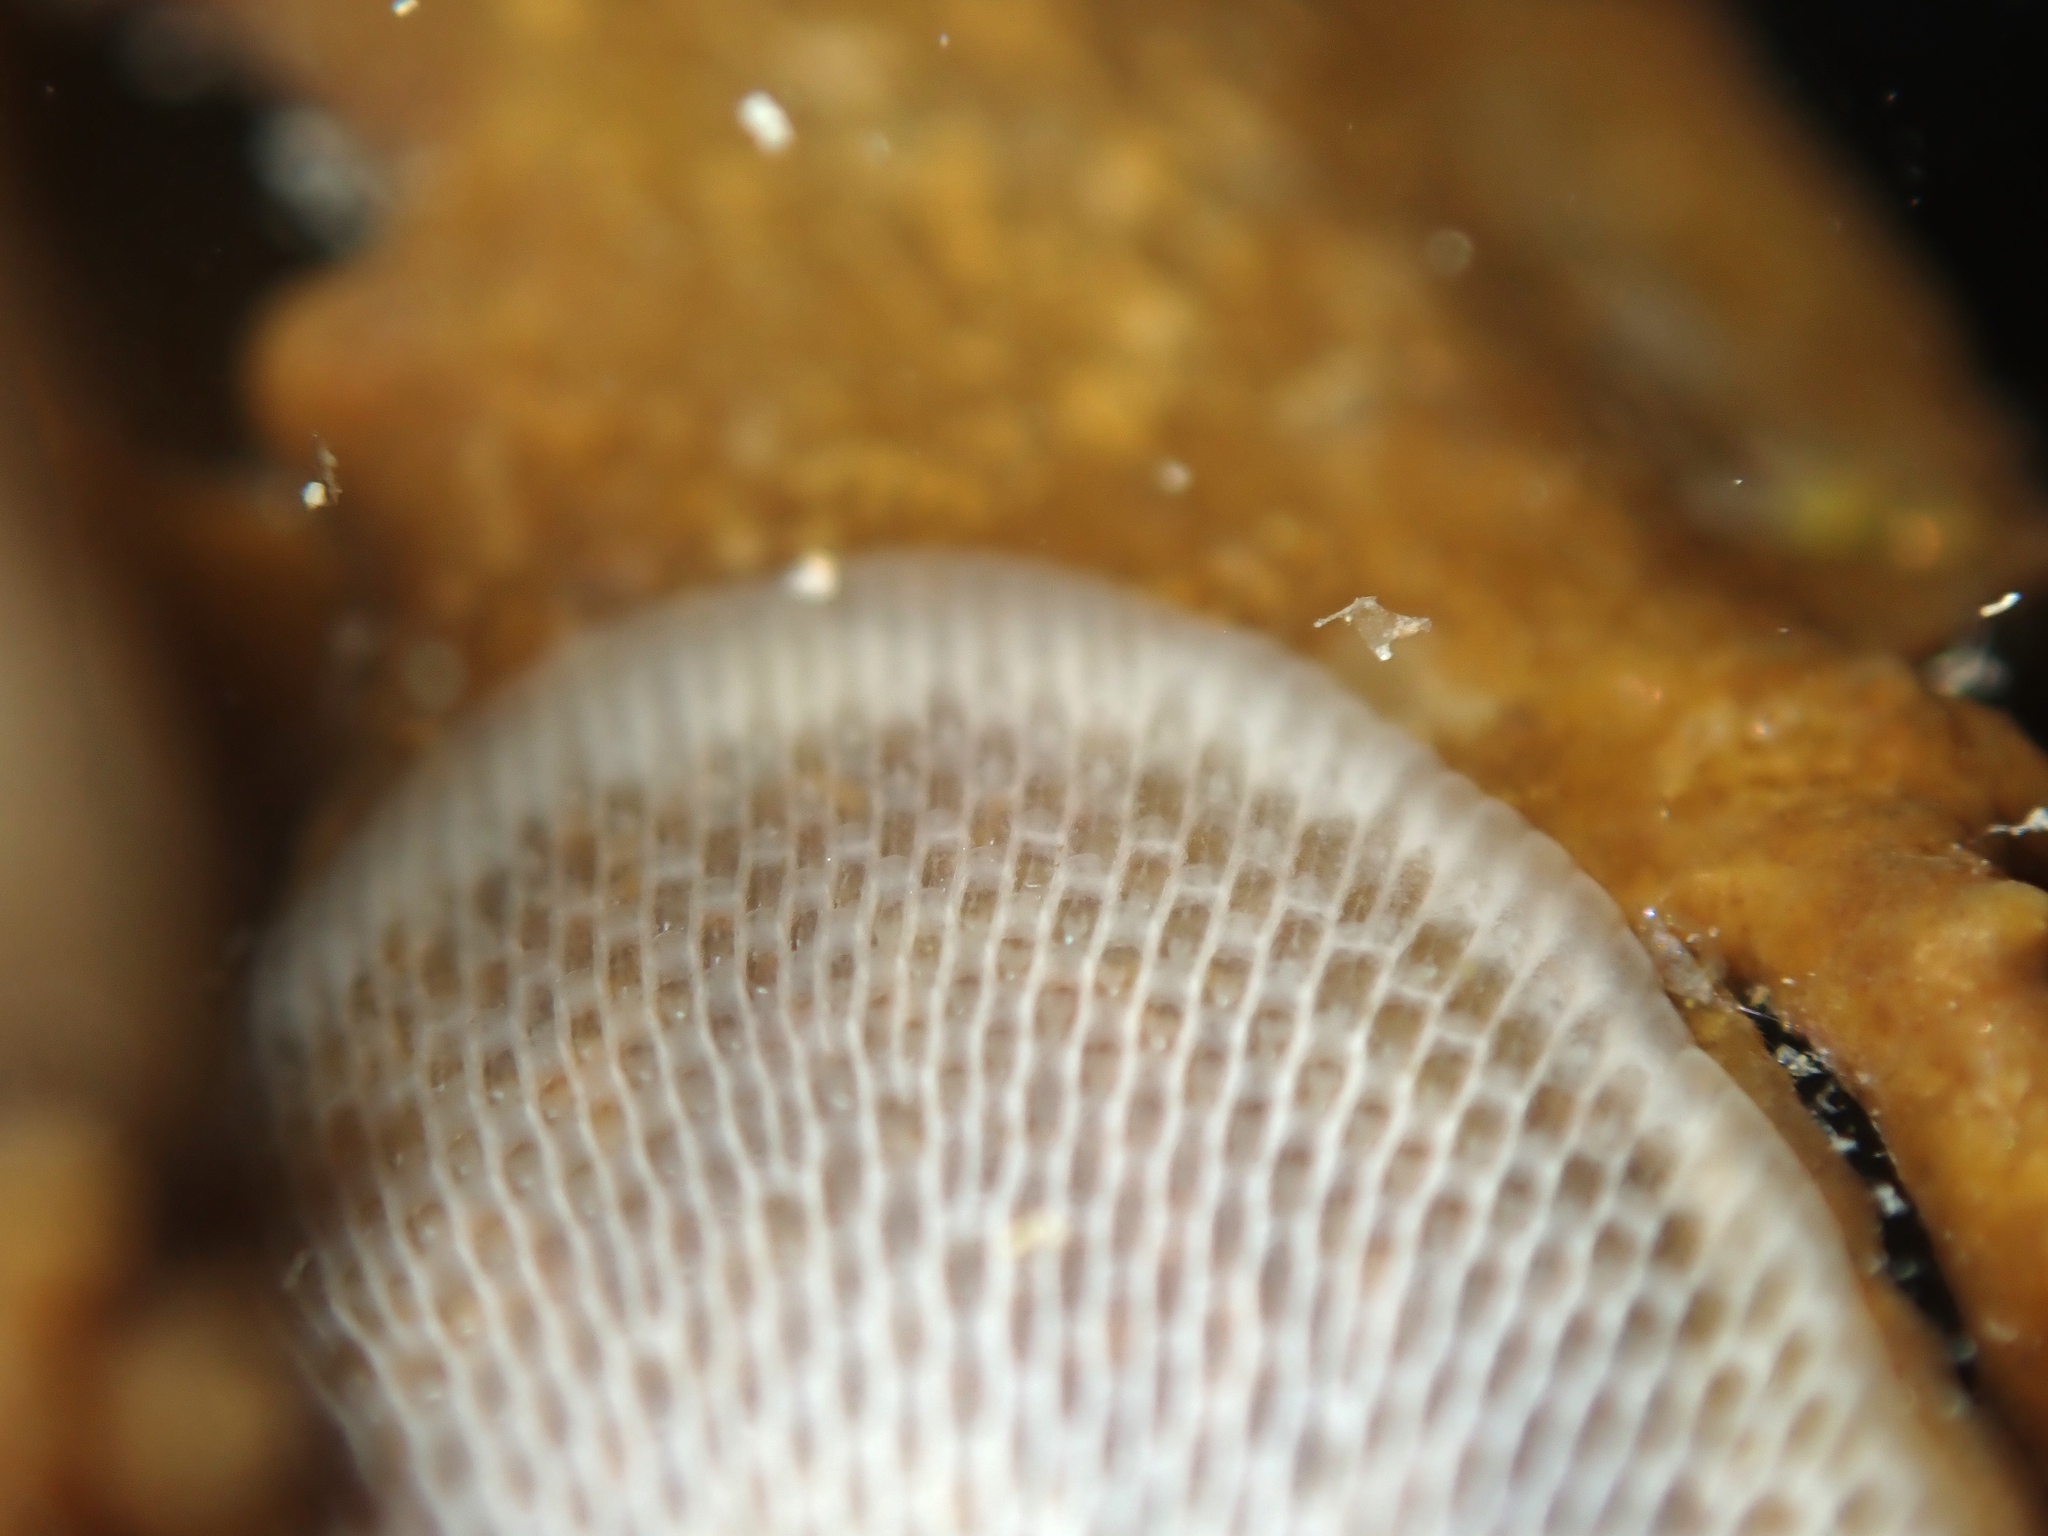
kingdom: Animalia
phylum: Bryozoa
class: Gymnolaemata
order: Cheilostomatida
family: Membraniporidae
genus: Membranipora
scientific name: Membranipora membranacea
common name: Sea mat
